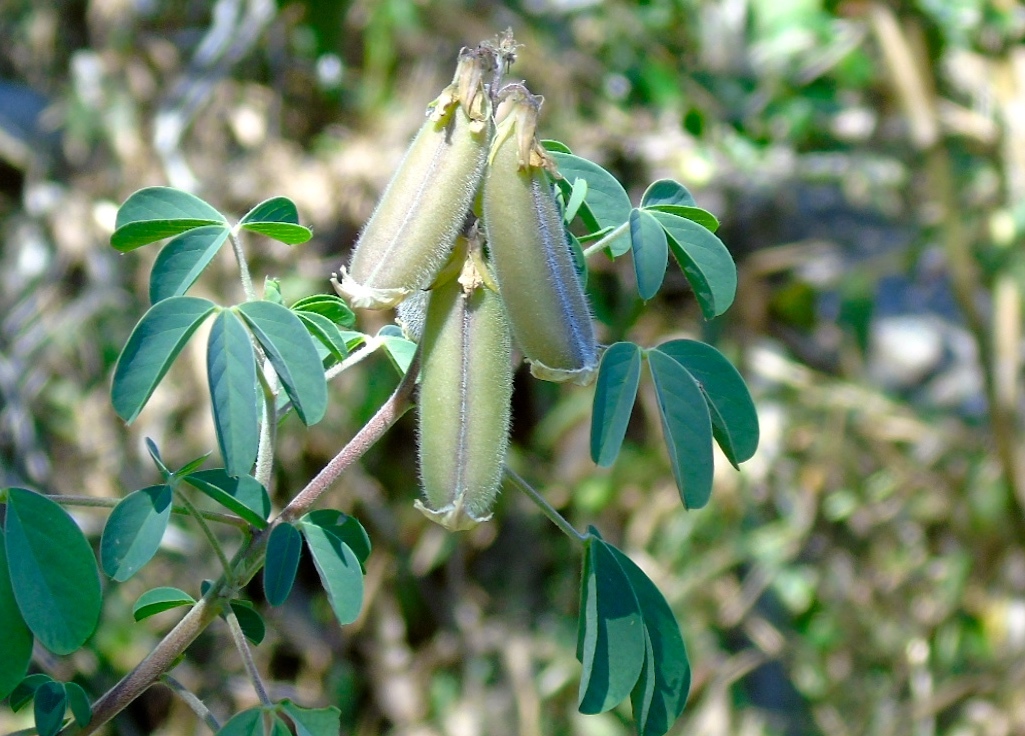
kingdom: Plantae
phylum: Tracheophyta
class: Magnoliopsida
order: Fabales
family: Fabaceae
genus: Crotalaria
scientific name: Crotalaria
